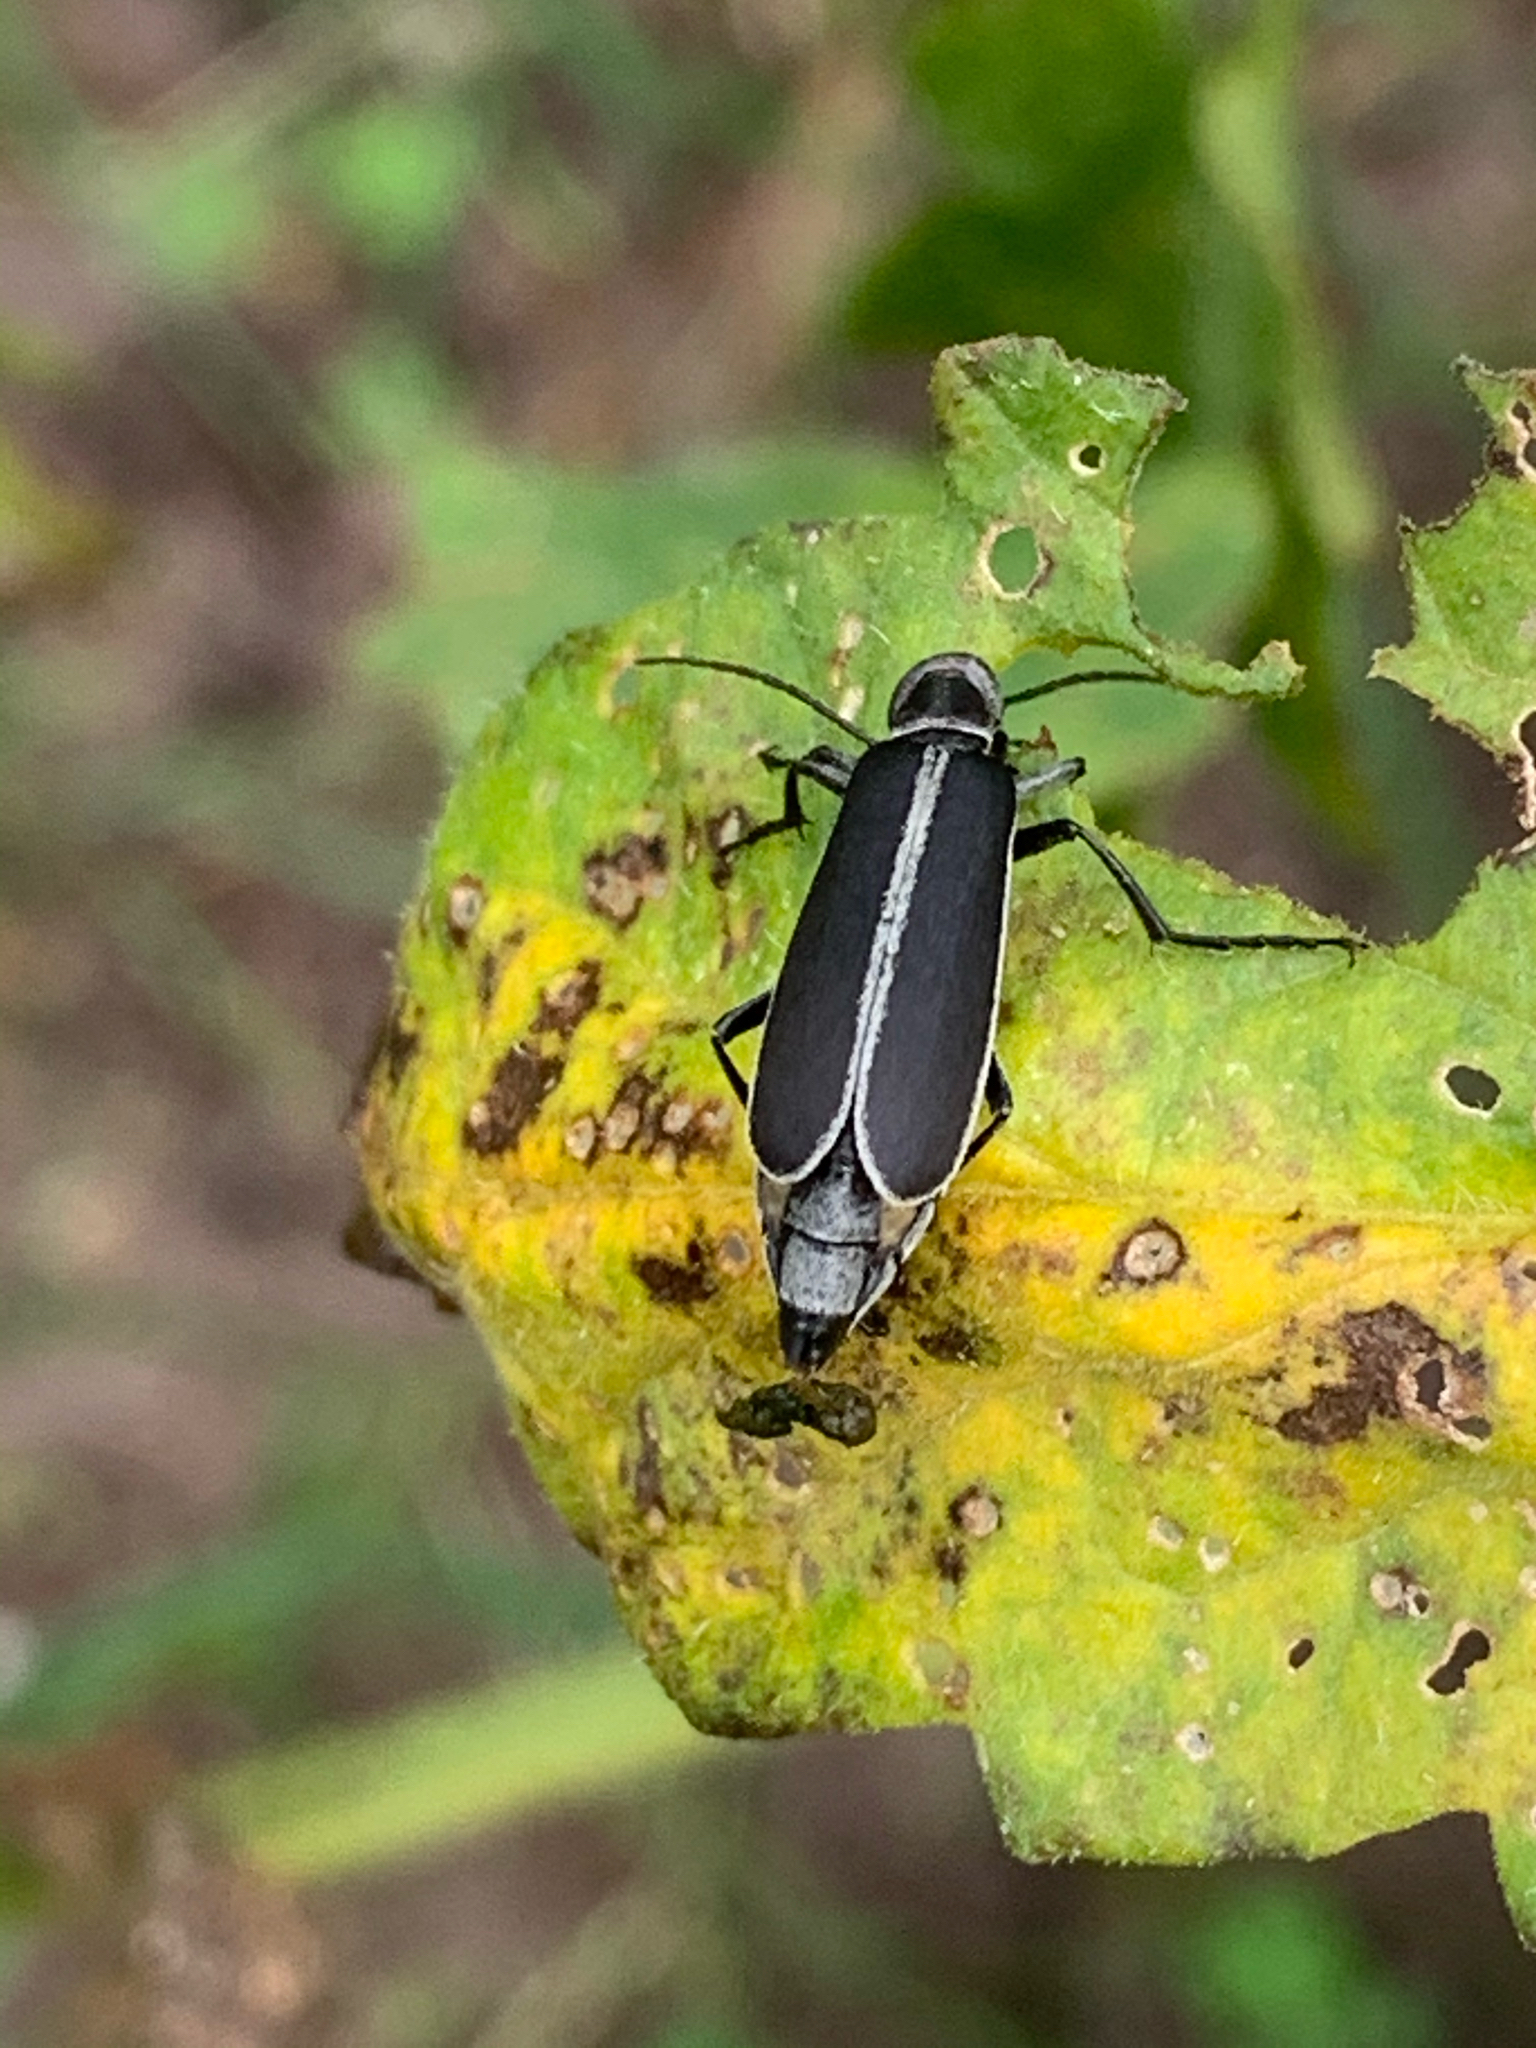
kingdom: Animalia
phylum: Arthropoda
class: Insecta
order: Coleoptera
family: Meloidae
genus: Epicauta
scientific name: Epicauta funebris
